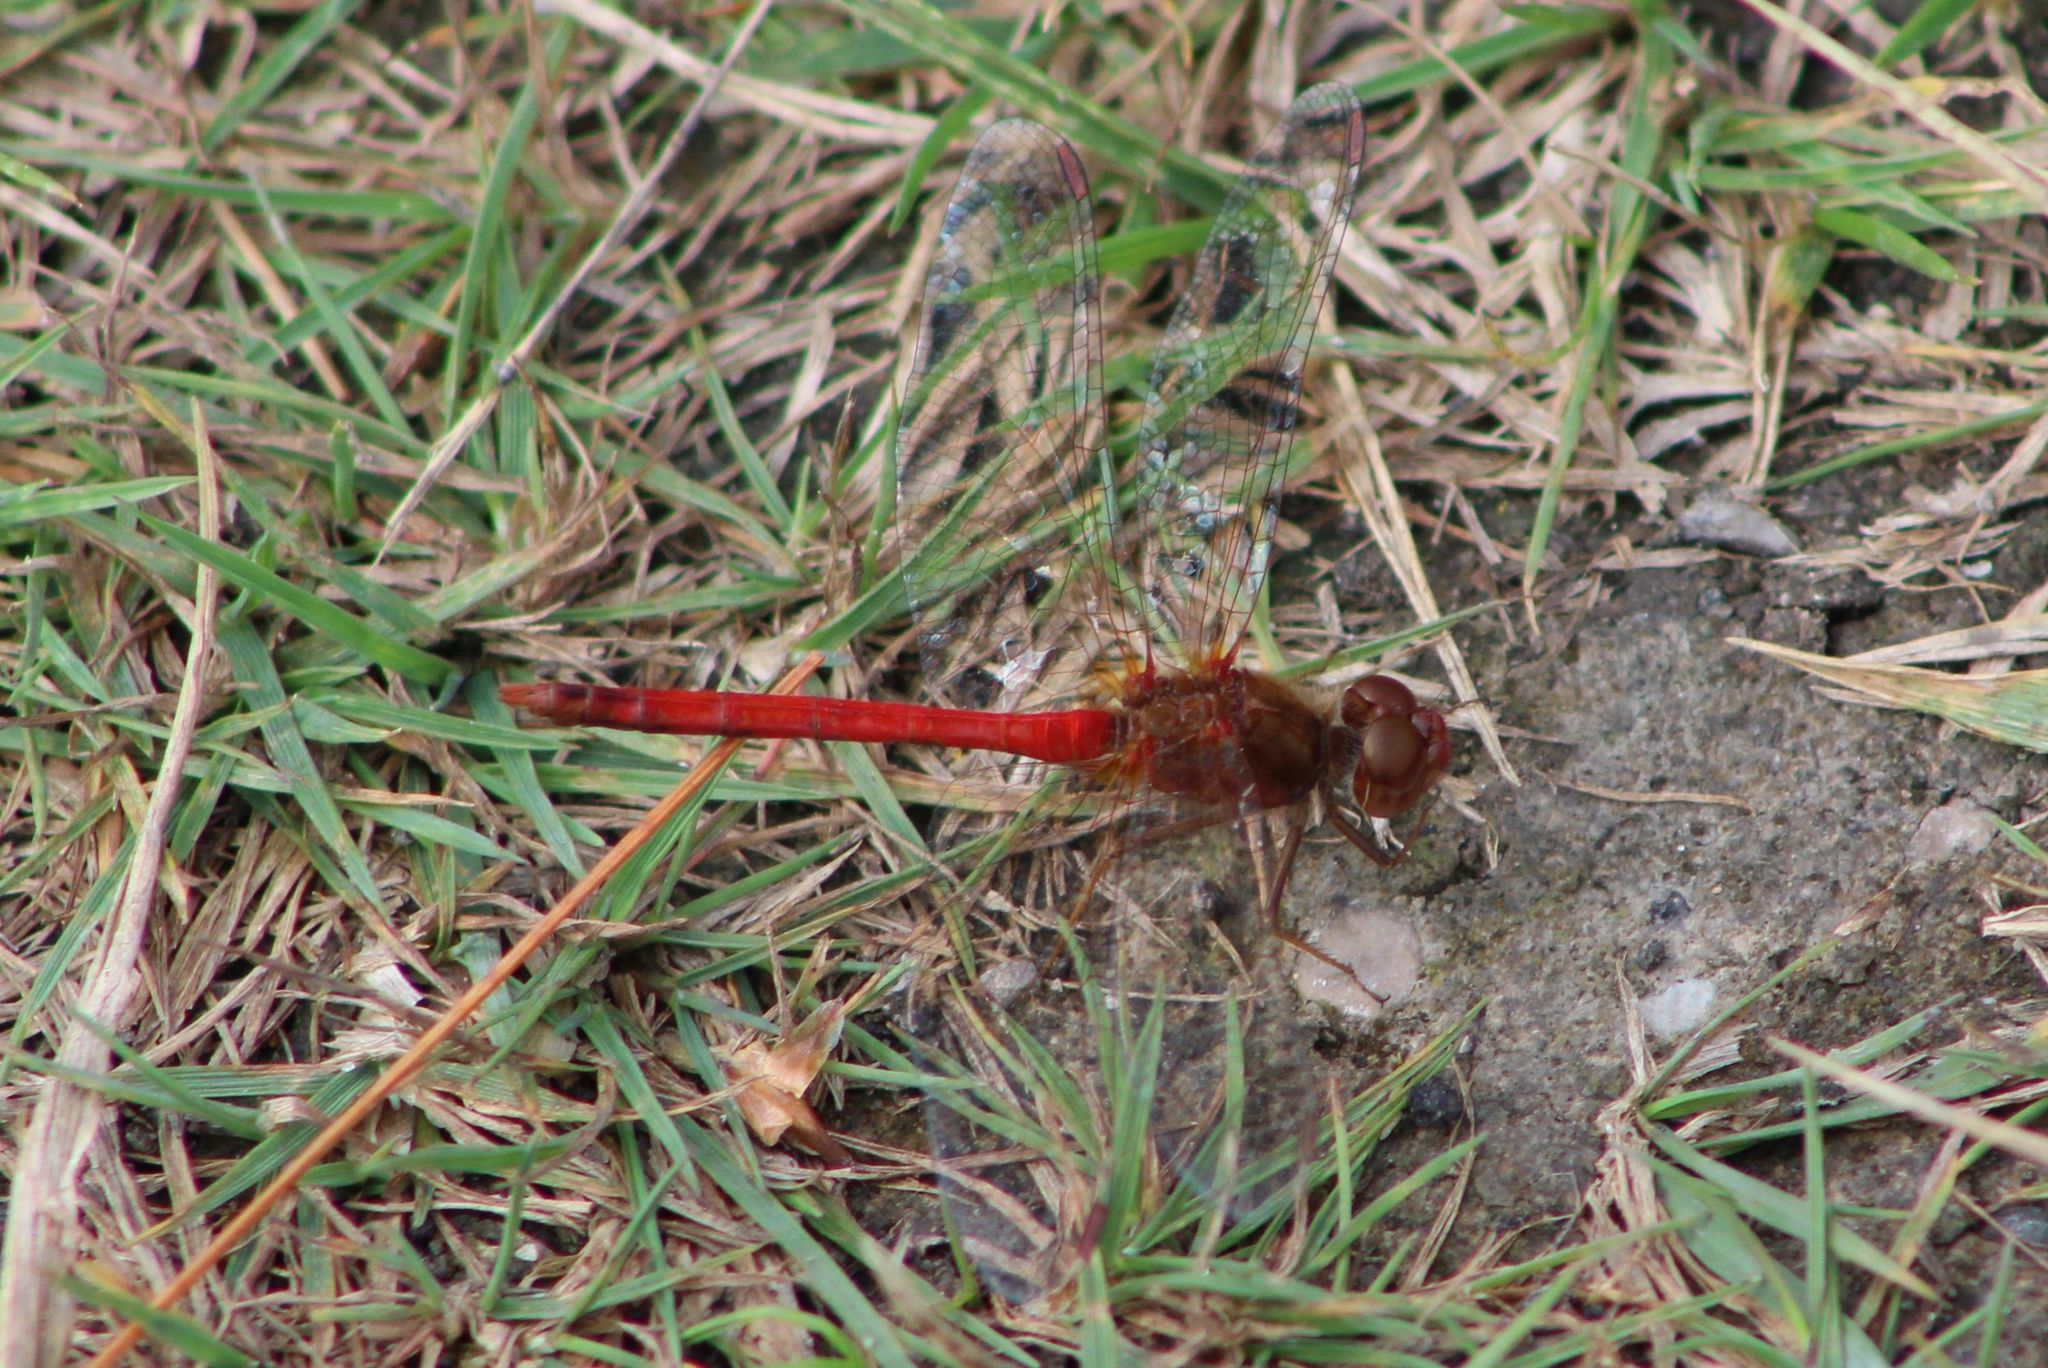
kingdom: Animalia
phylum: Arthropoda
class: Insecta
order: Odonata
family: Libellulidae
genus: Sympetrum
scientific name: Sympetrum vicinum
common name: Autumn meadowhawk
